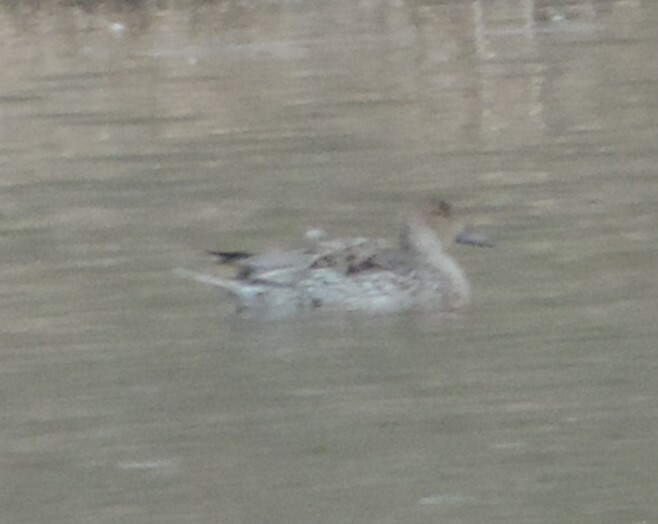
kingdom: Animalia
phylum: Chordata
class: Aves
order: Anseriformes
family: Anatidae
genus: Anas
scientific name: Anas acuta
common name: Northern pintail
